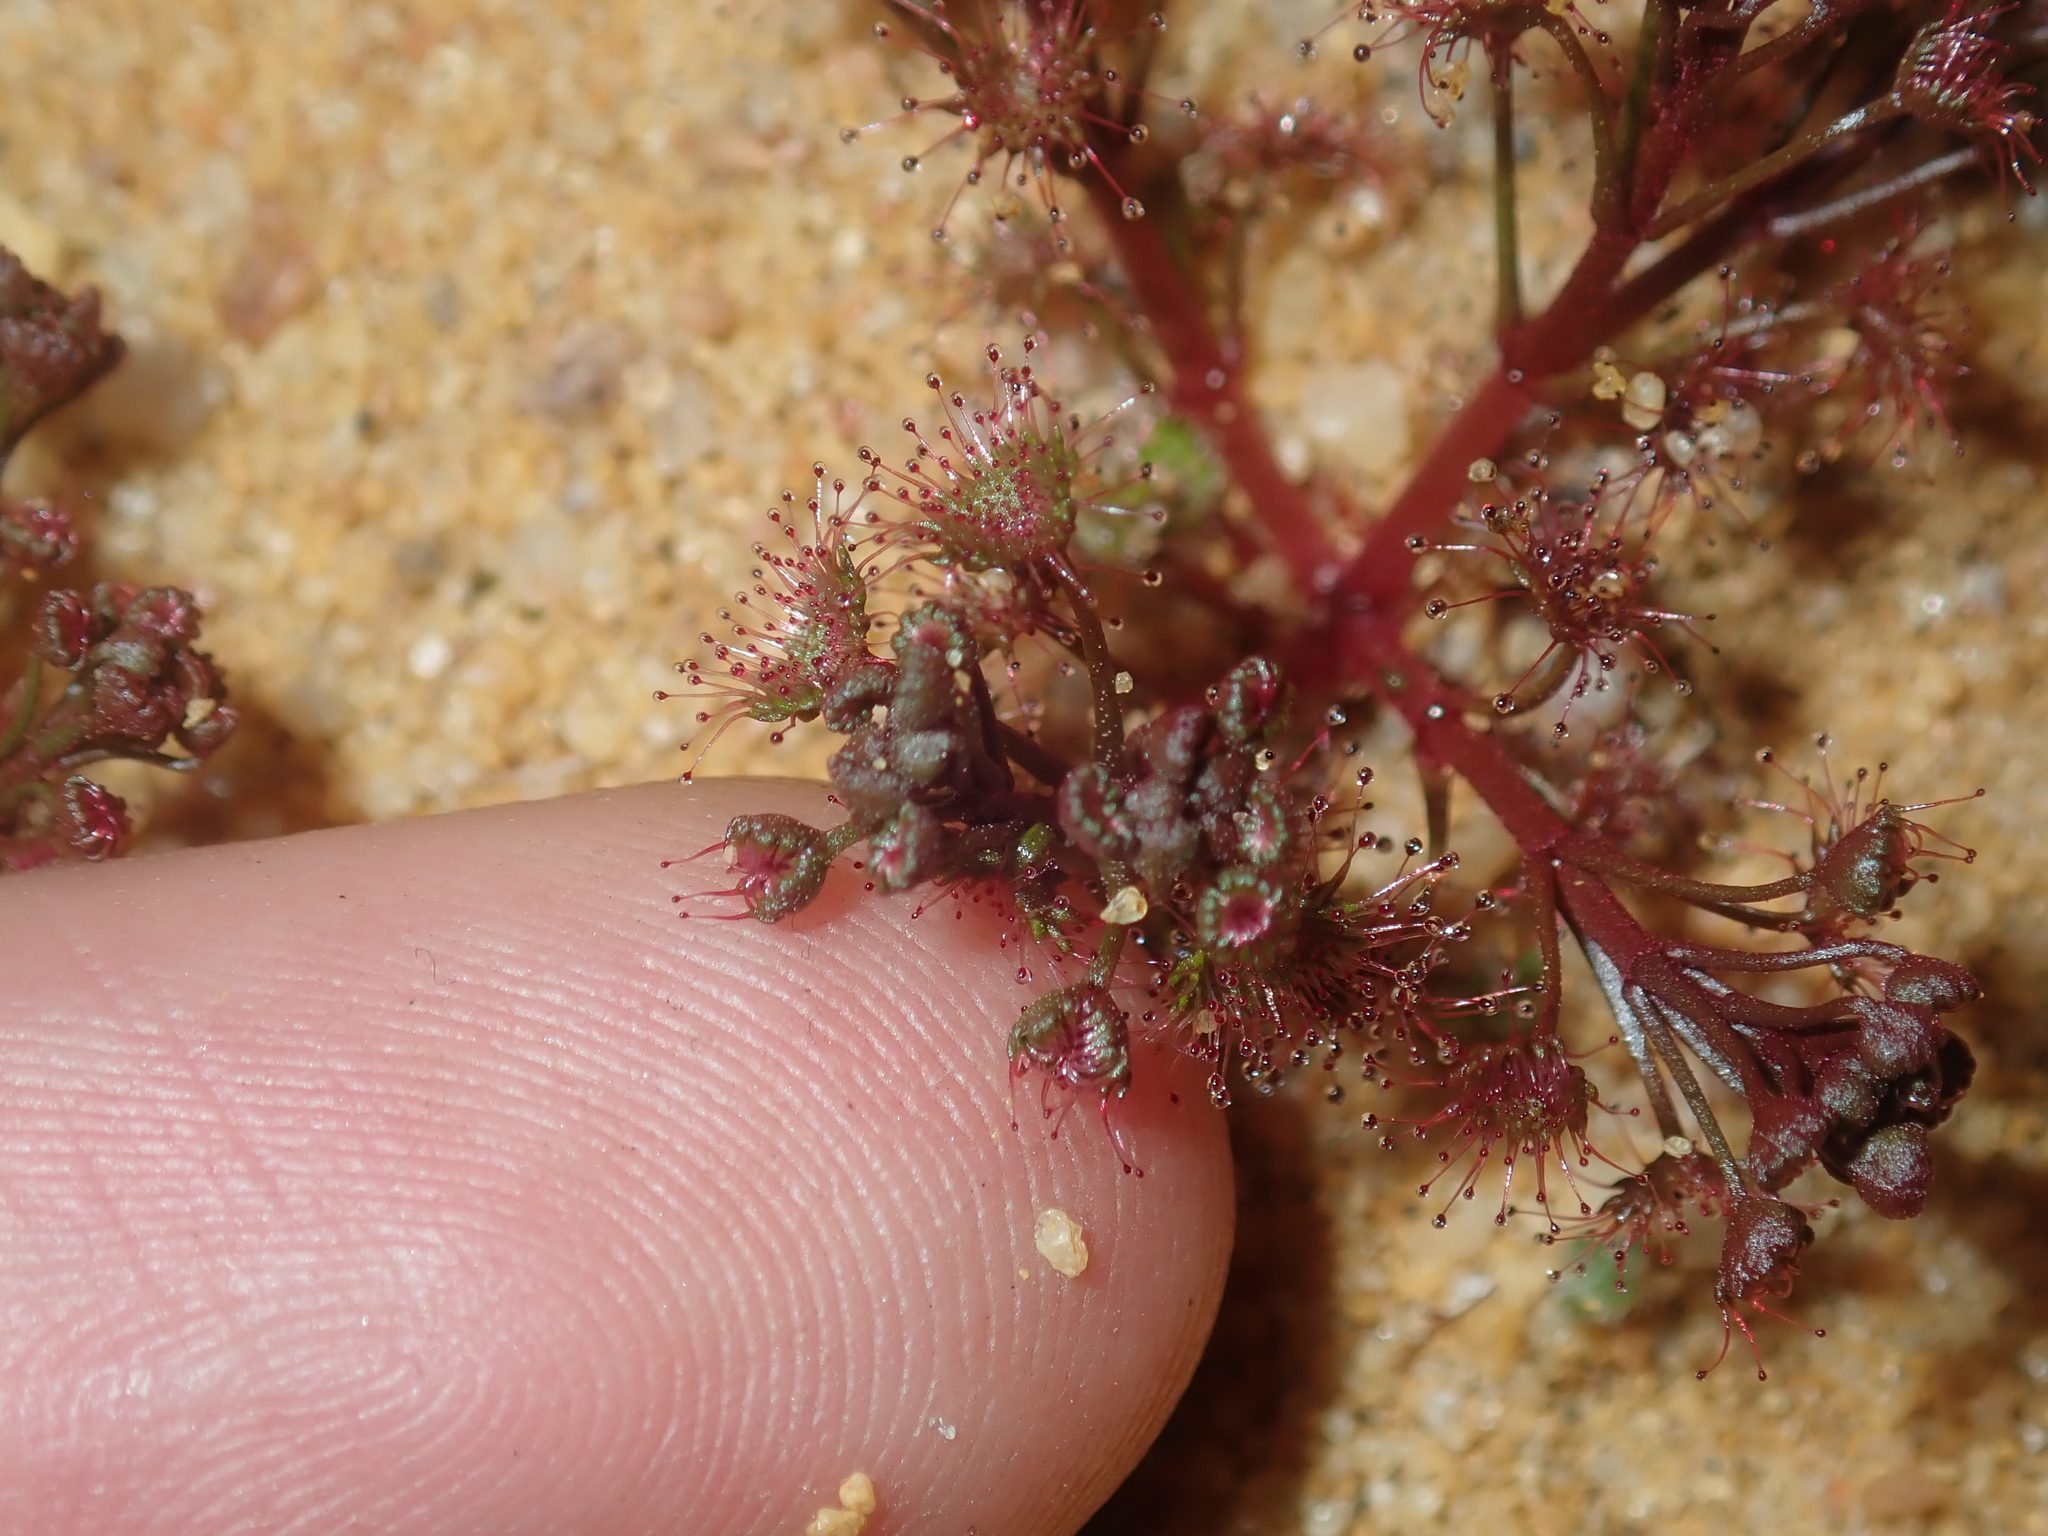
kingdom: Plantae
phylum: Tracheophyta
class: Magnoliopsida
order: Caryophyllales
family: Droseraceae
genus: Drosera
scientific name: Drosera stolonifera
